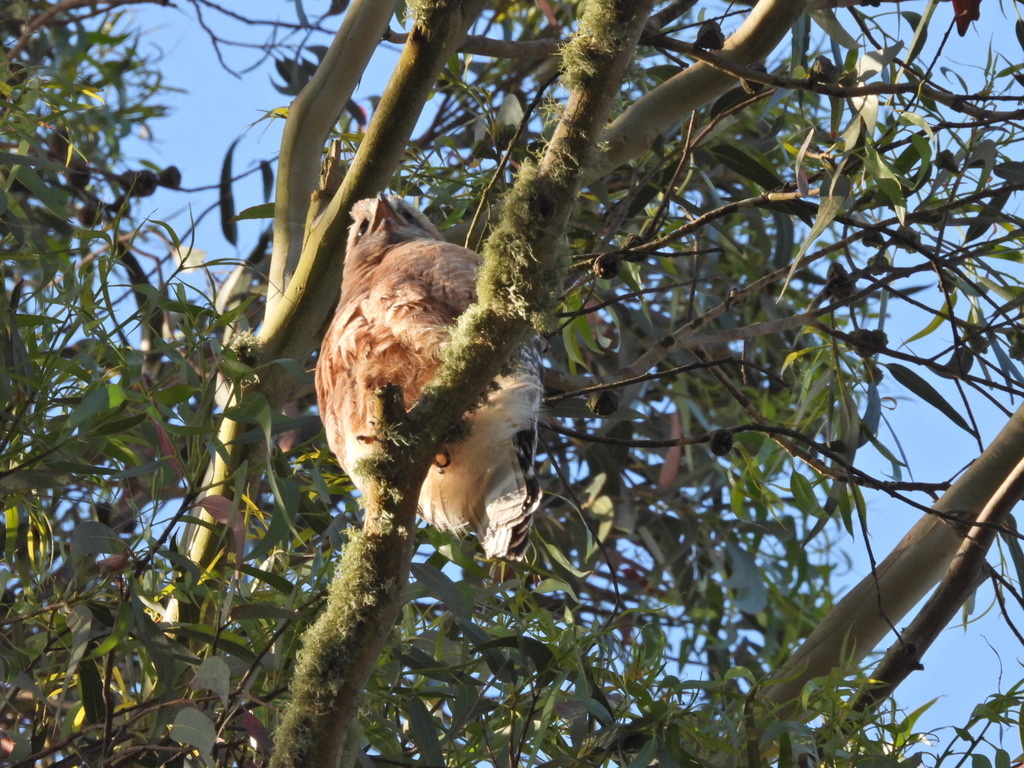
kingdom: Animalia
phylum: Chordata
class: Aves
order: Accipitriformes
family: Accipitridae
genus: Buteo
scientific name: Buteo lineatus
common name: Red-shouldered hawk
